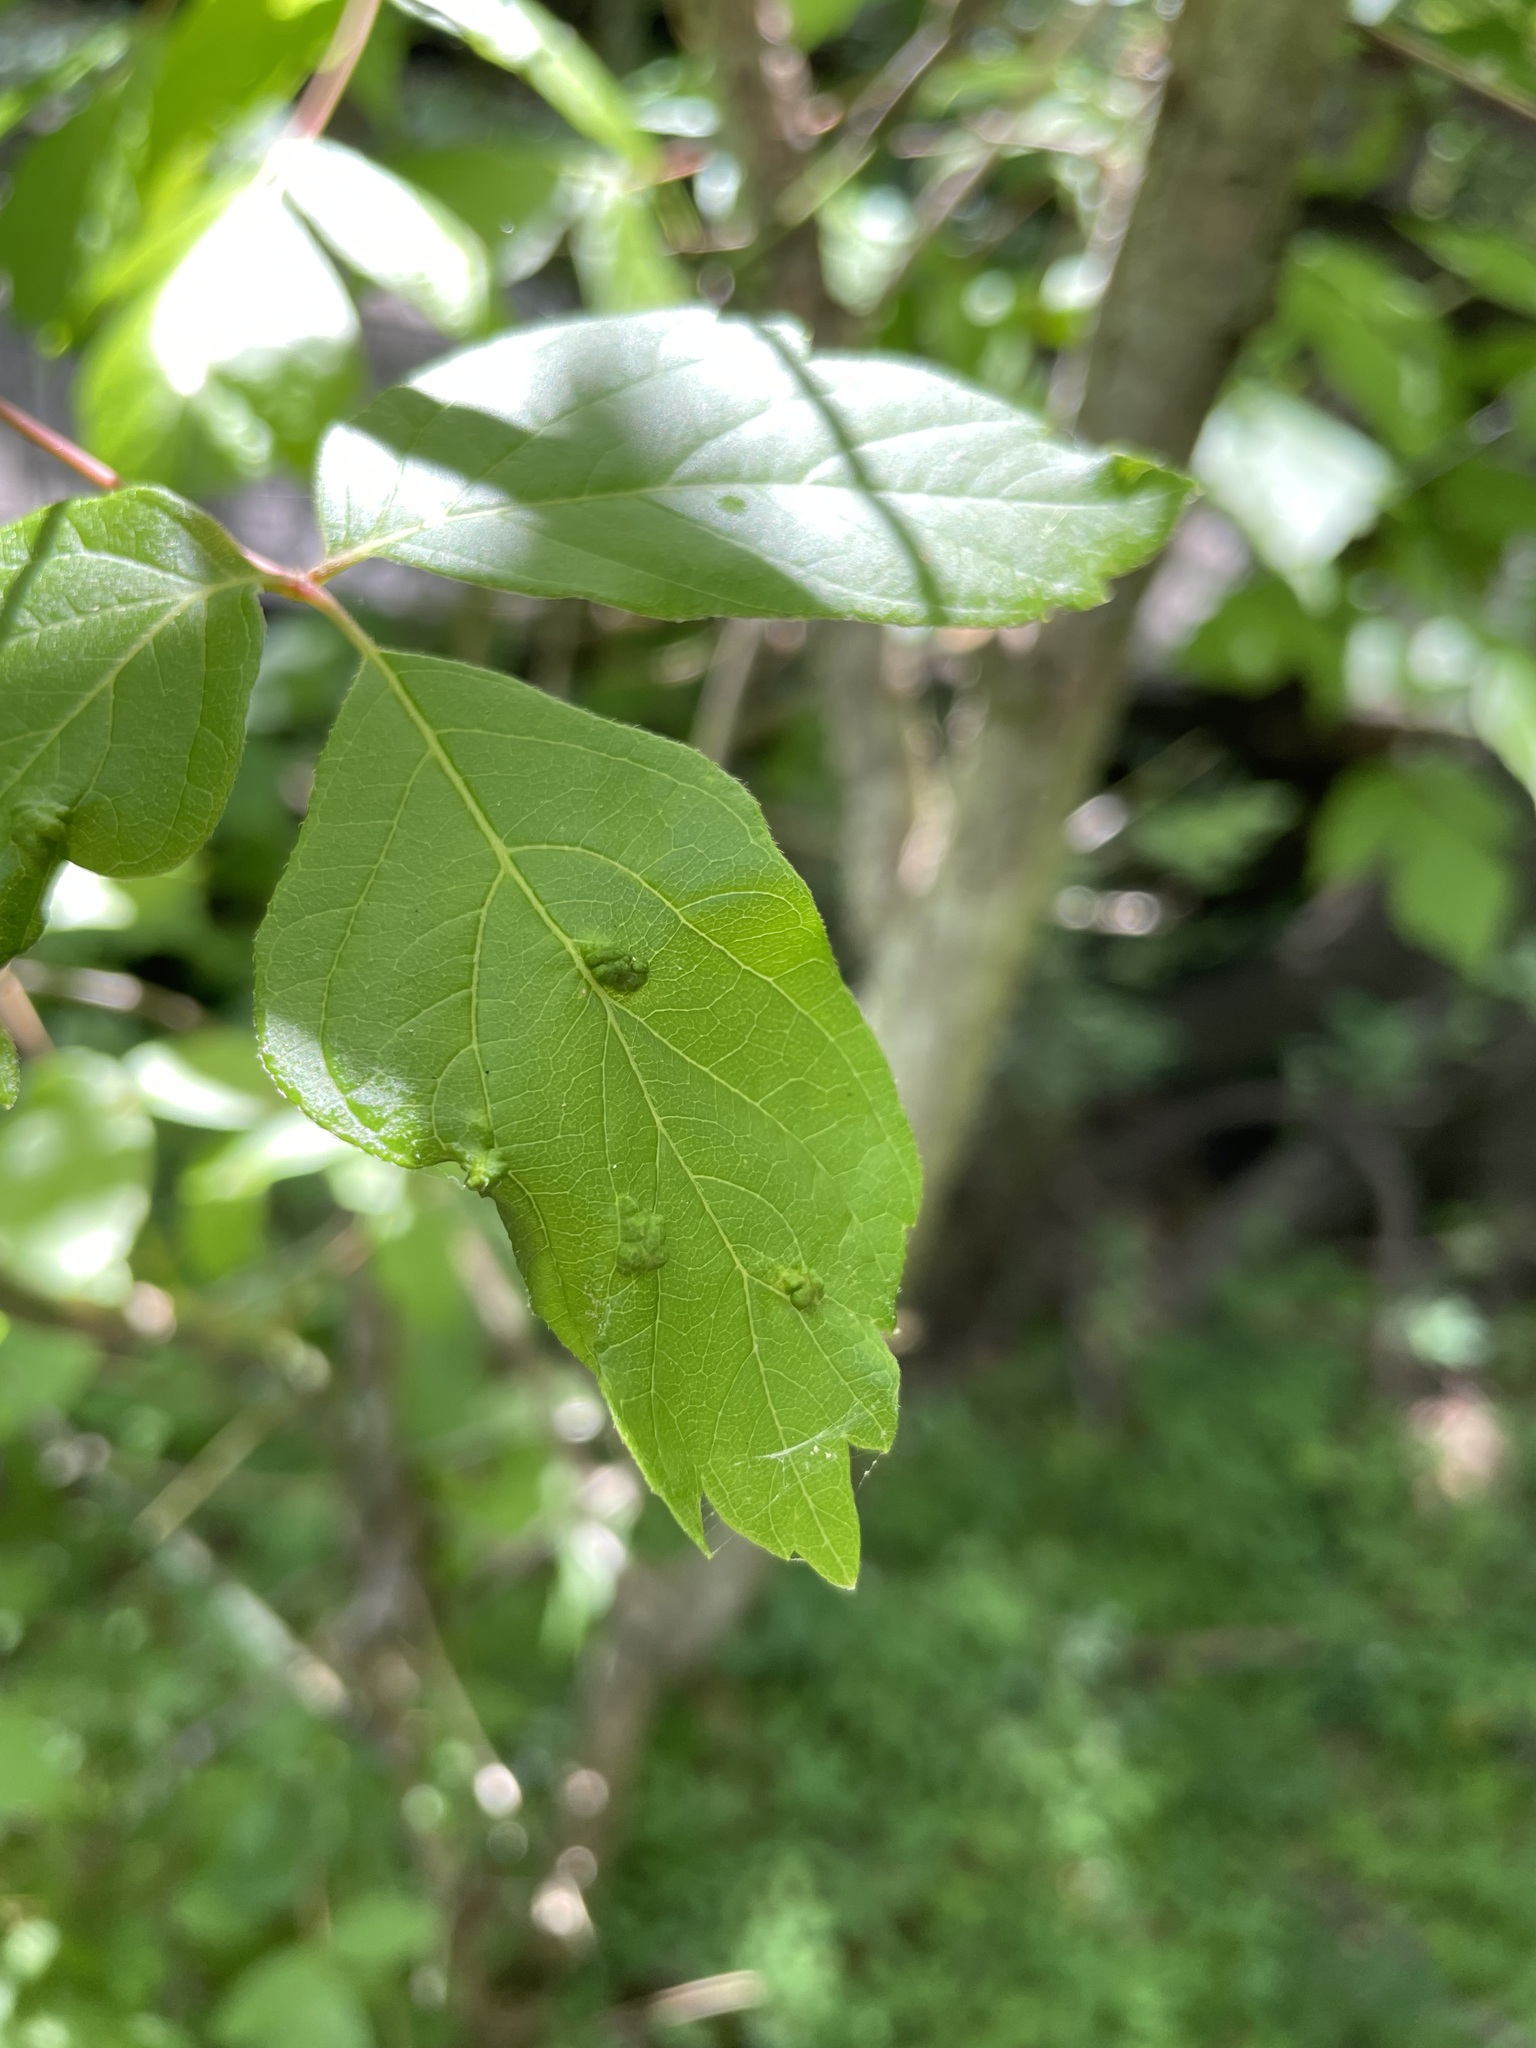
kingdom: Animalia
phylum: Arthropoda
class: Arachnida
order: Trombidiformes
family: Eriophyidae
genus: Aceria
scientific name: Aceria
